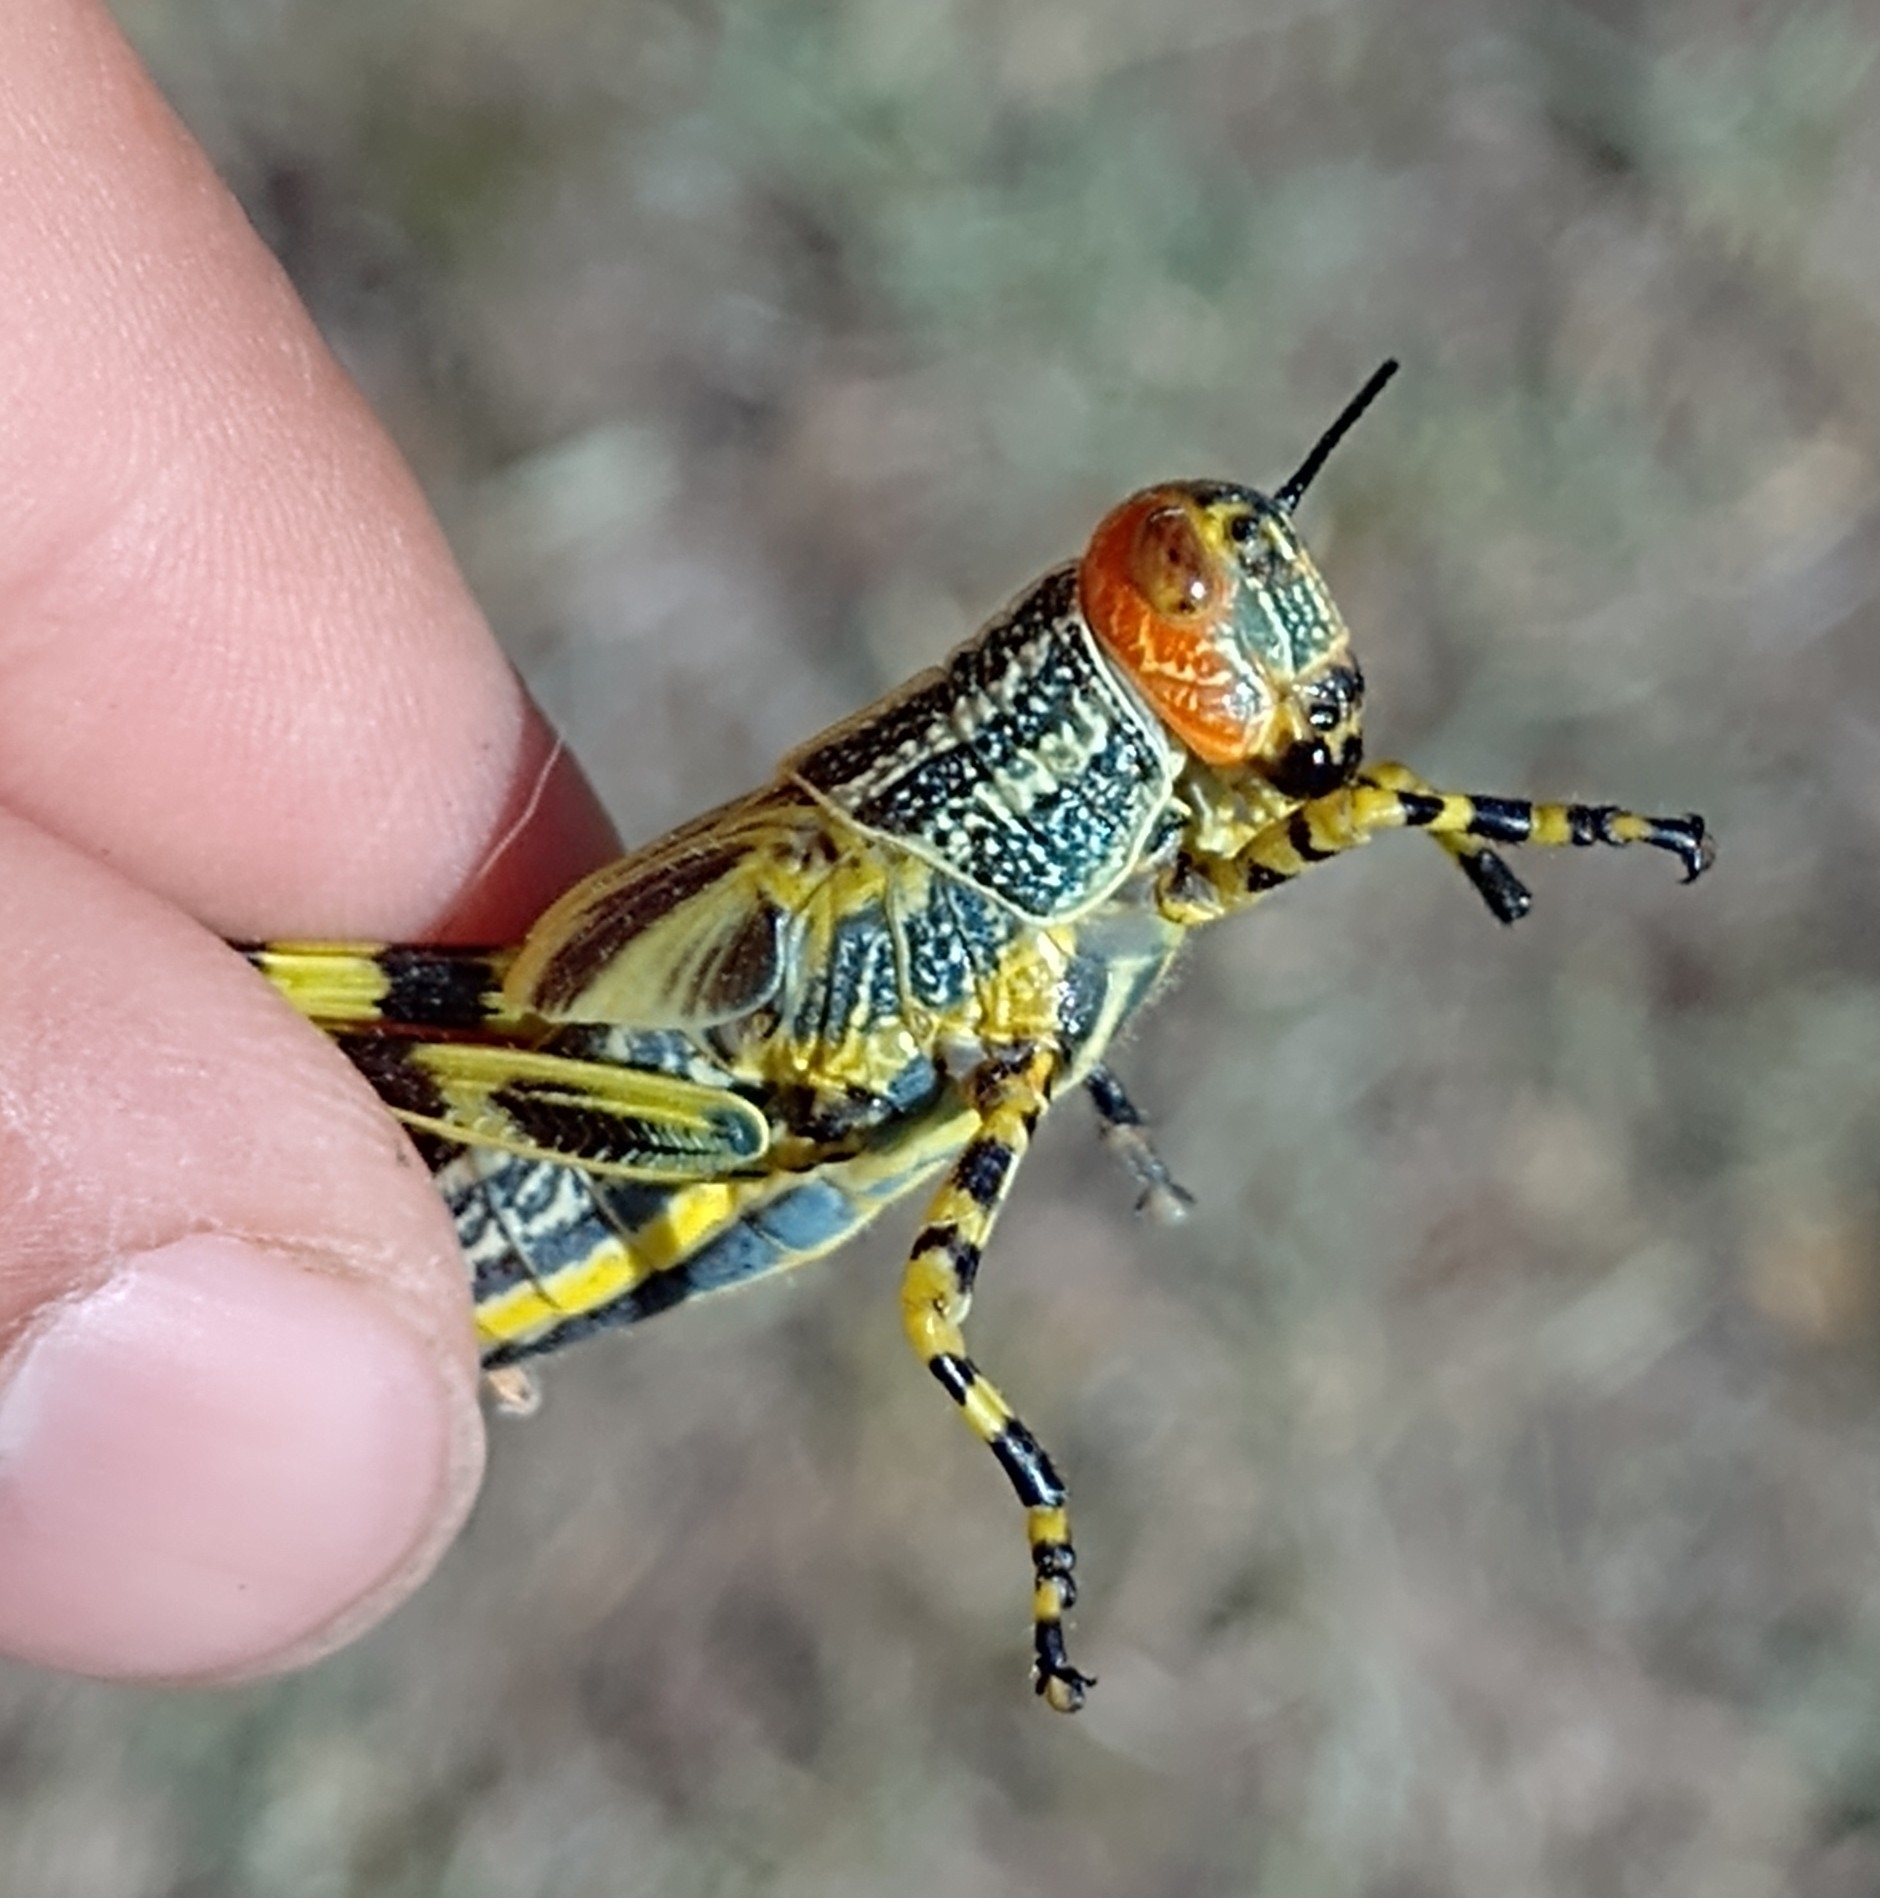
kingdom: Animalia
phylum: Arthropoda
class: Insecta
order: Orthoptera
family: Romaleidae
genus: Zoniopoda
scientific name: Zoniopoda tarsata
